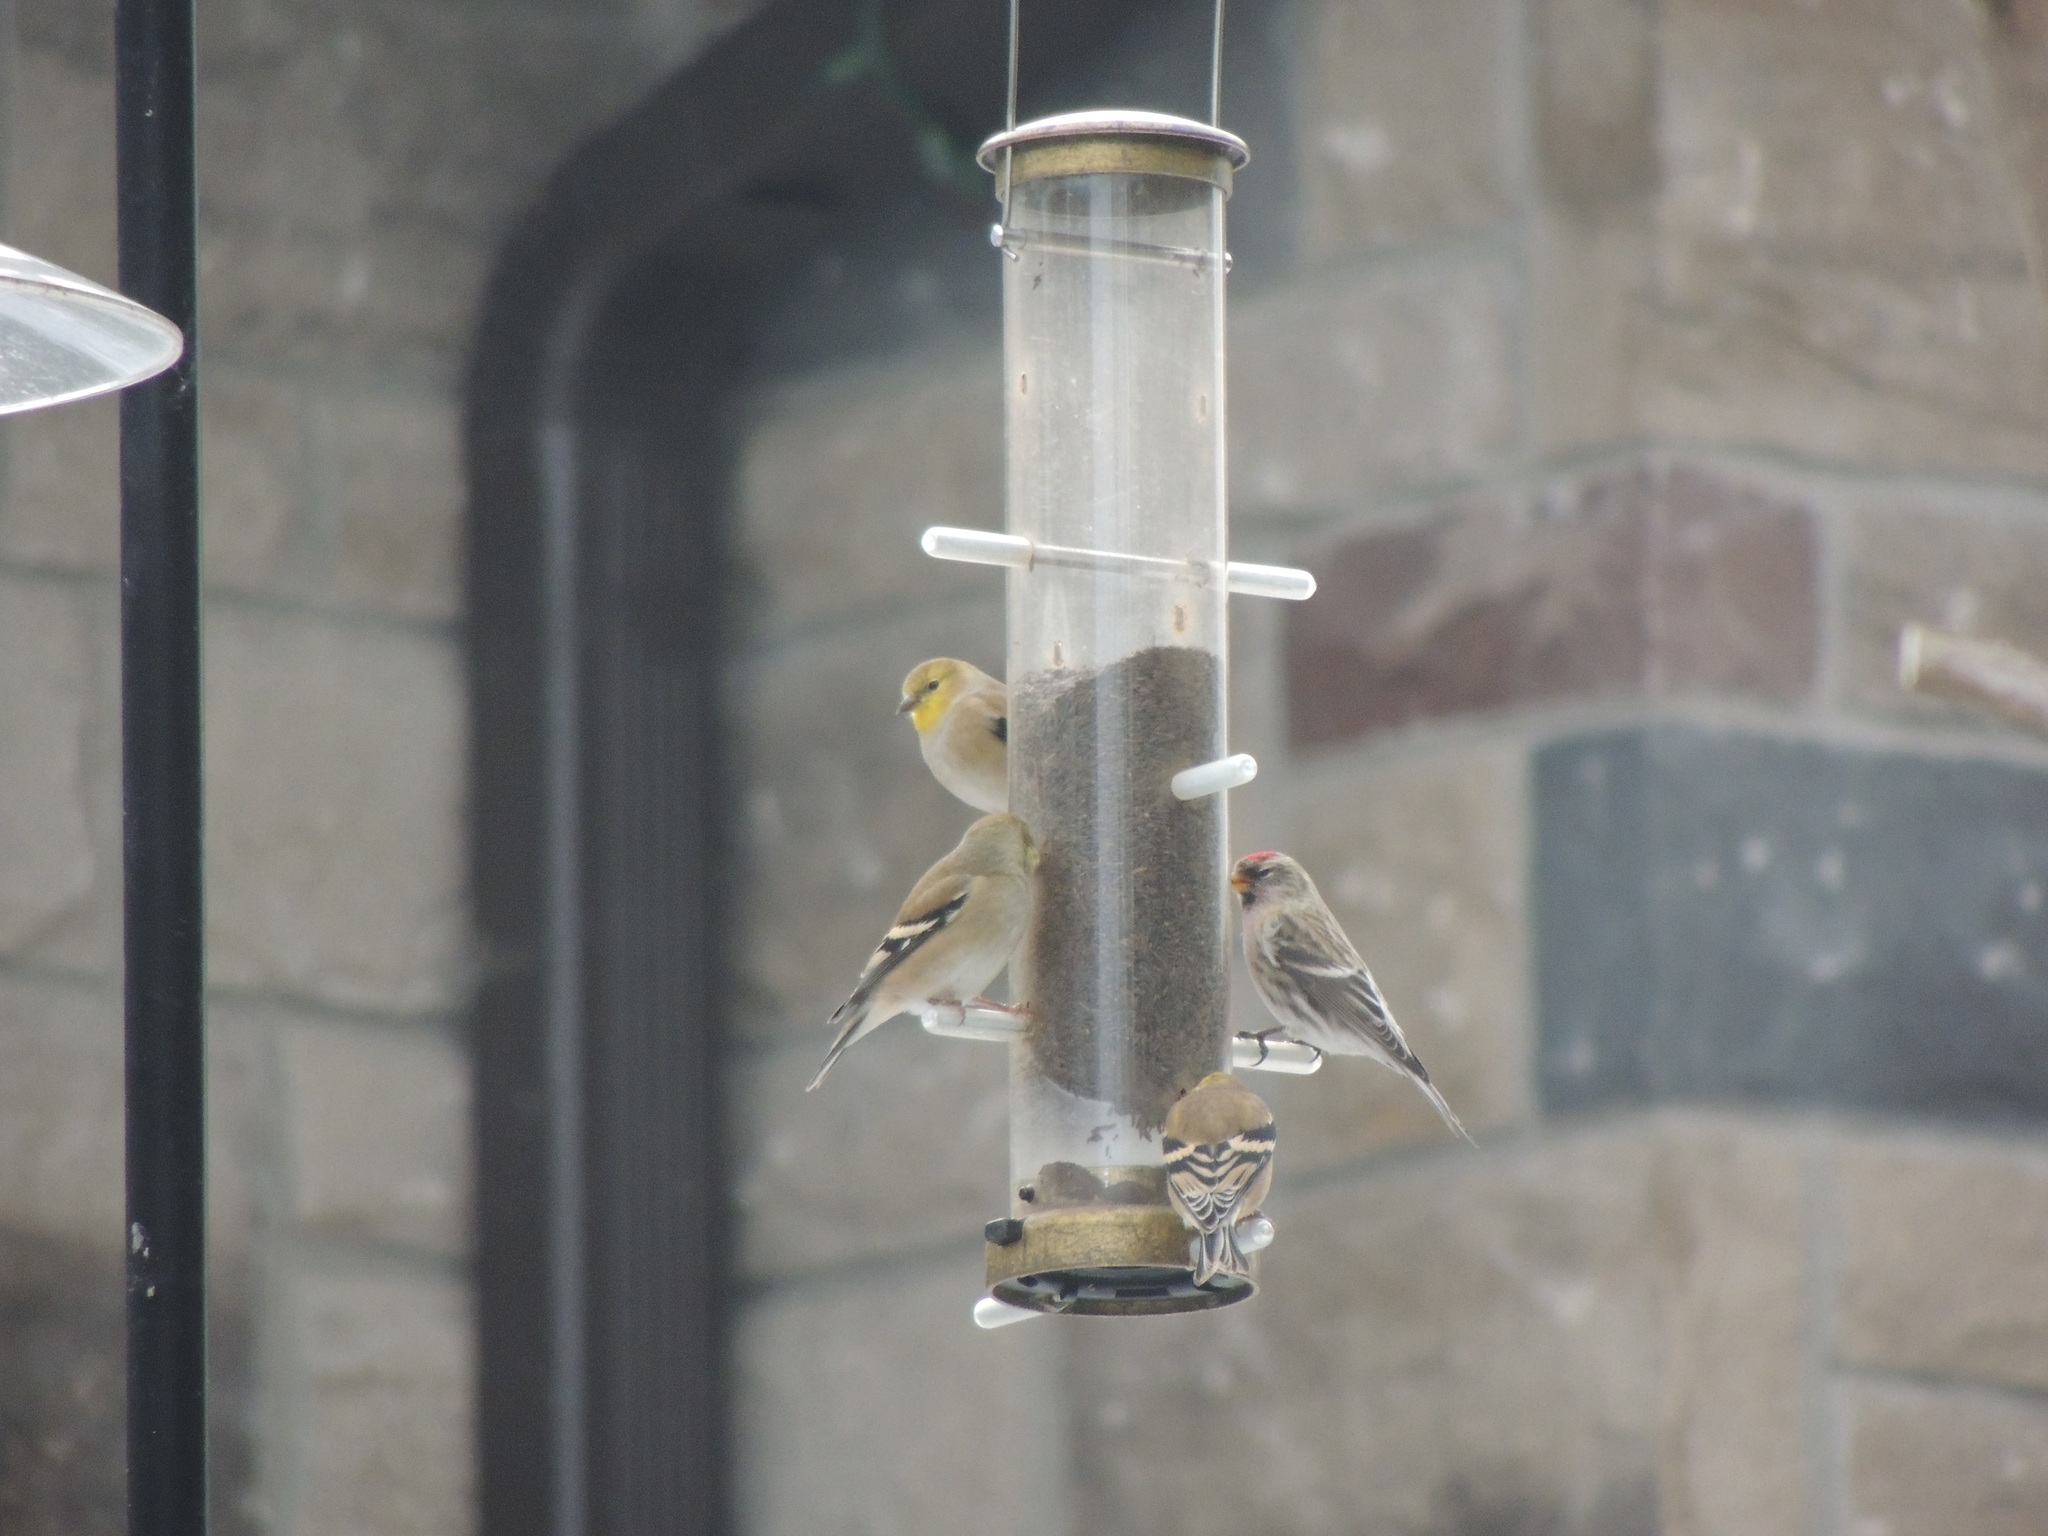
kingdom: Animalia
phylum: Chordata
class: Aves
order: Passeriformes
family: Fringillidae
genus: Acanthis
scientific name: Acanthis flammea
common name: Common redpoll
